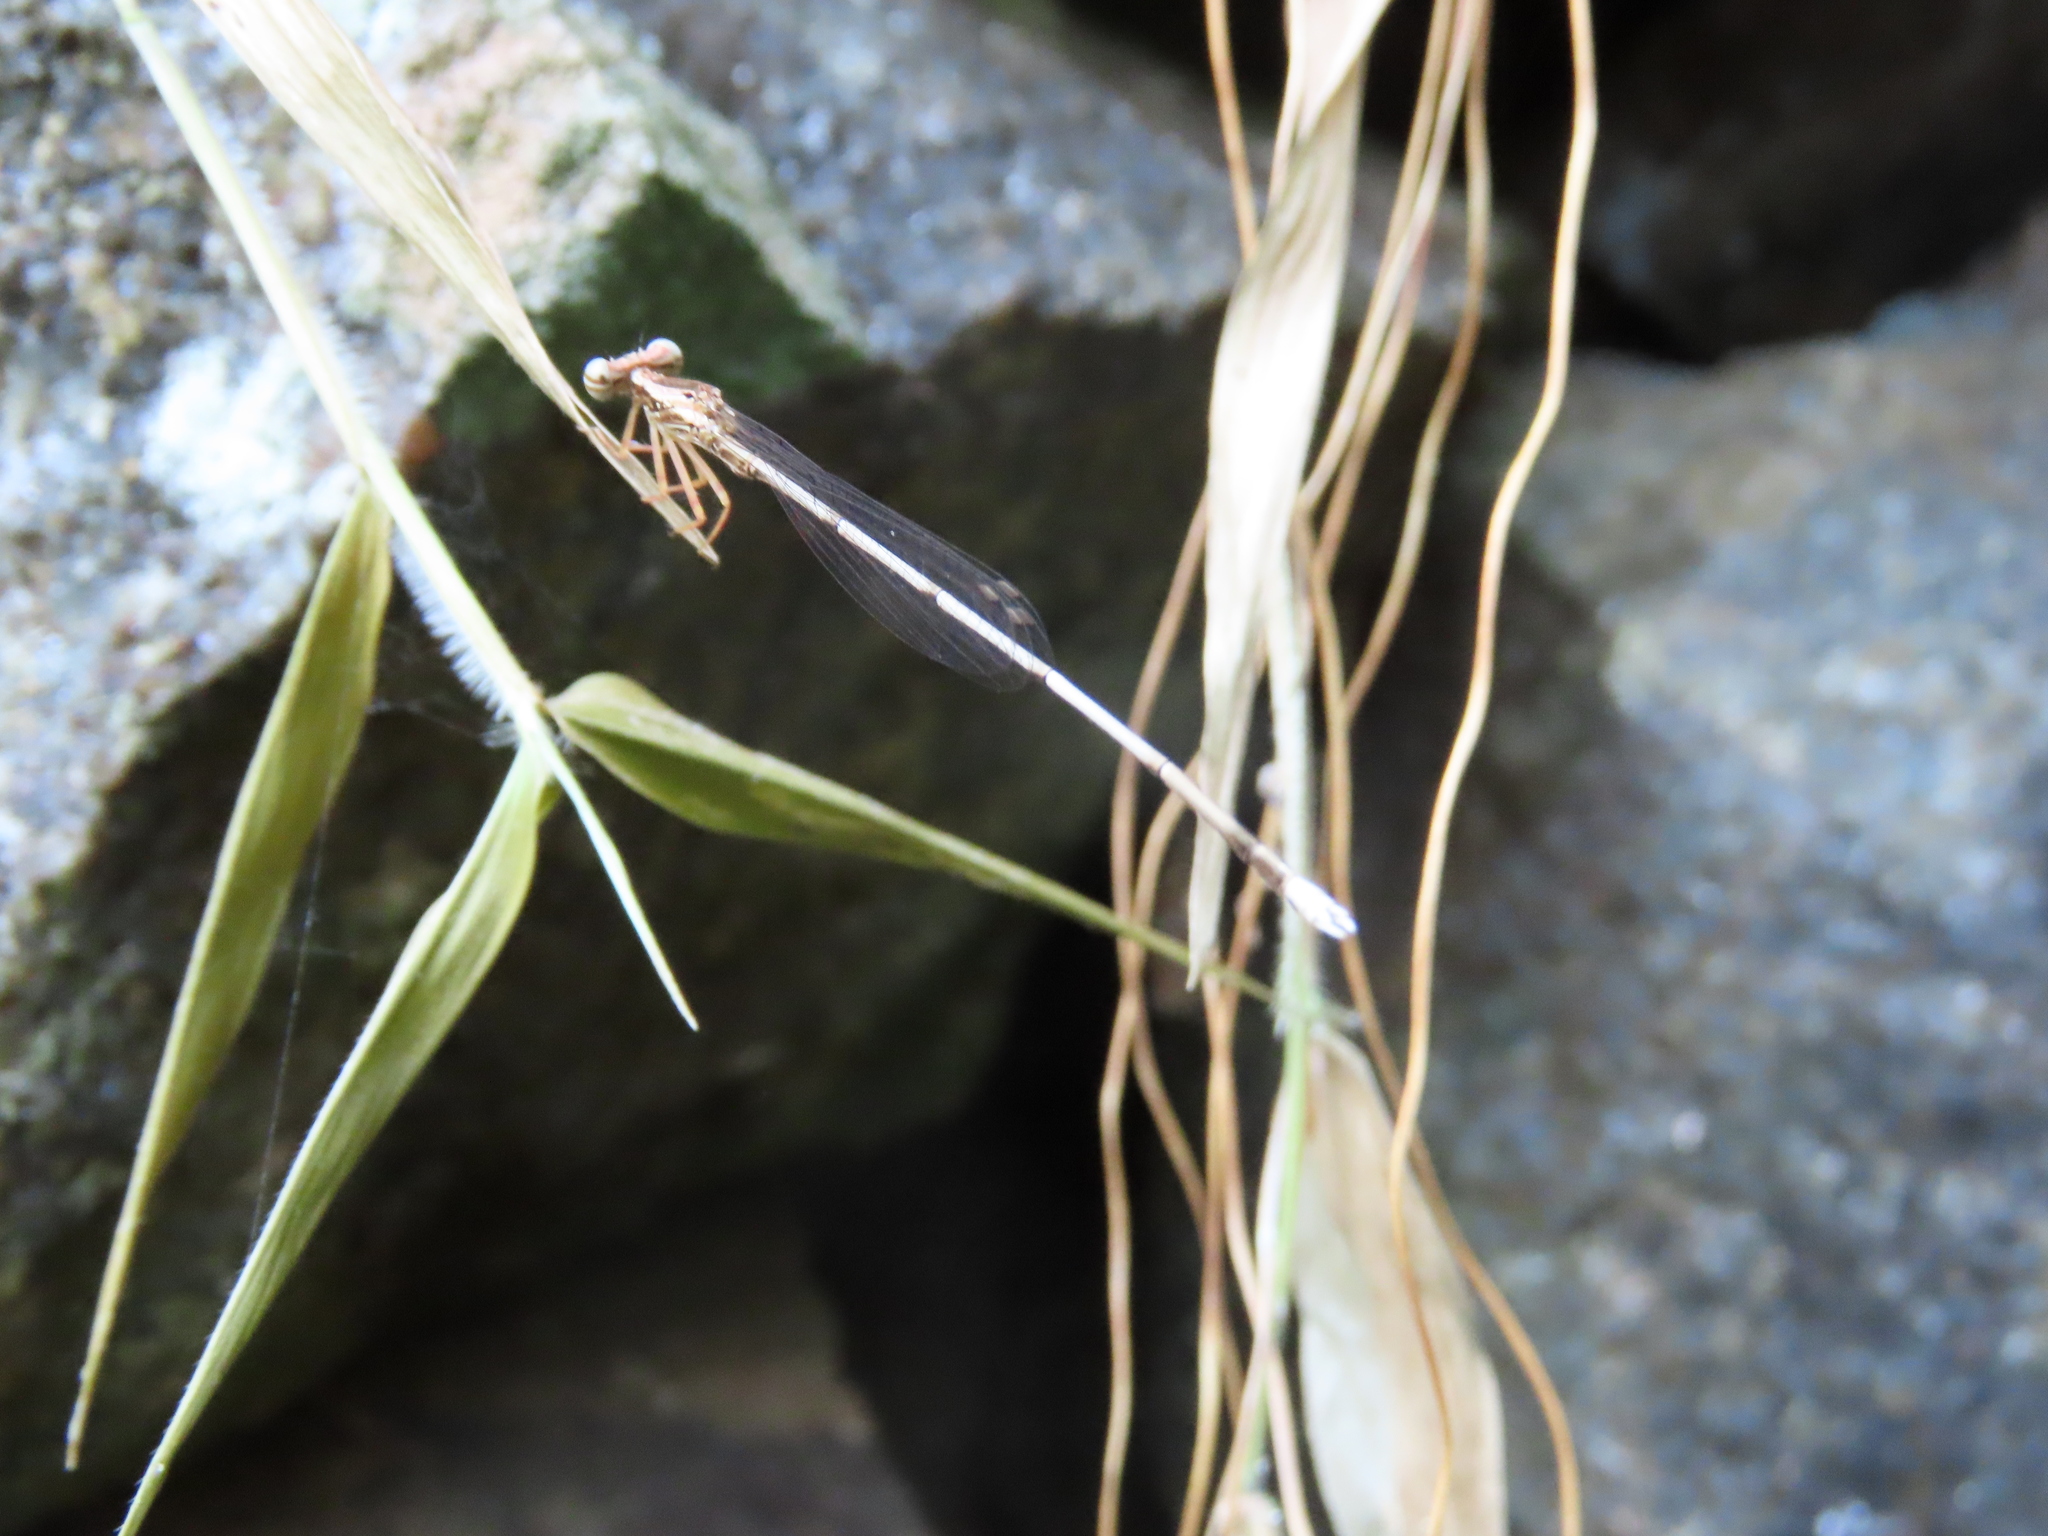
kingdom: Animalia
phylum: Arthropoda
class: Insecta
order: Odonata
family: Platycnemididae
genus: Copera
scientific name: Copera vittata
